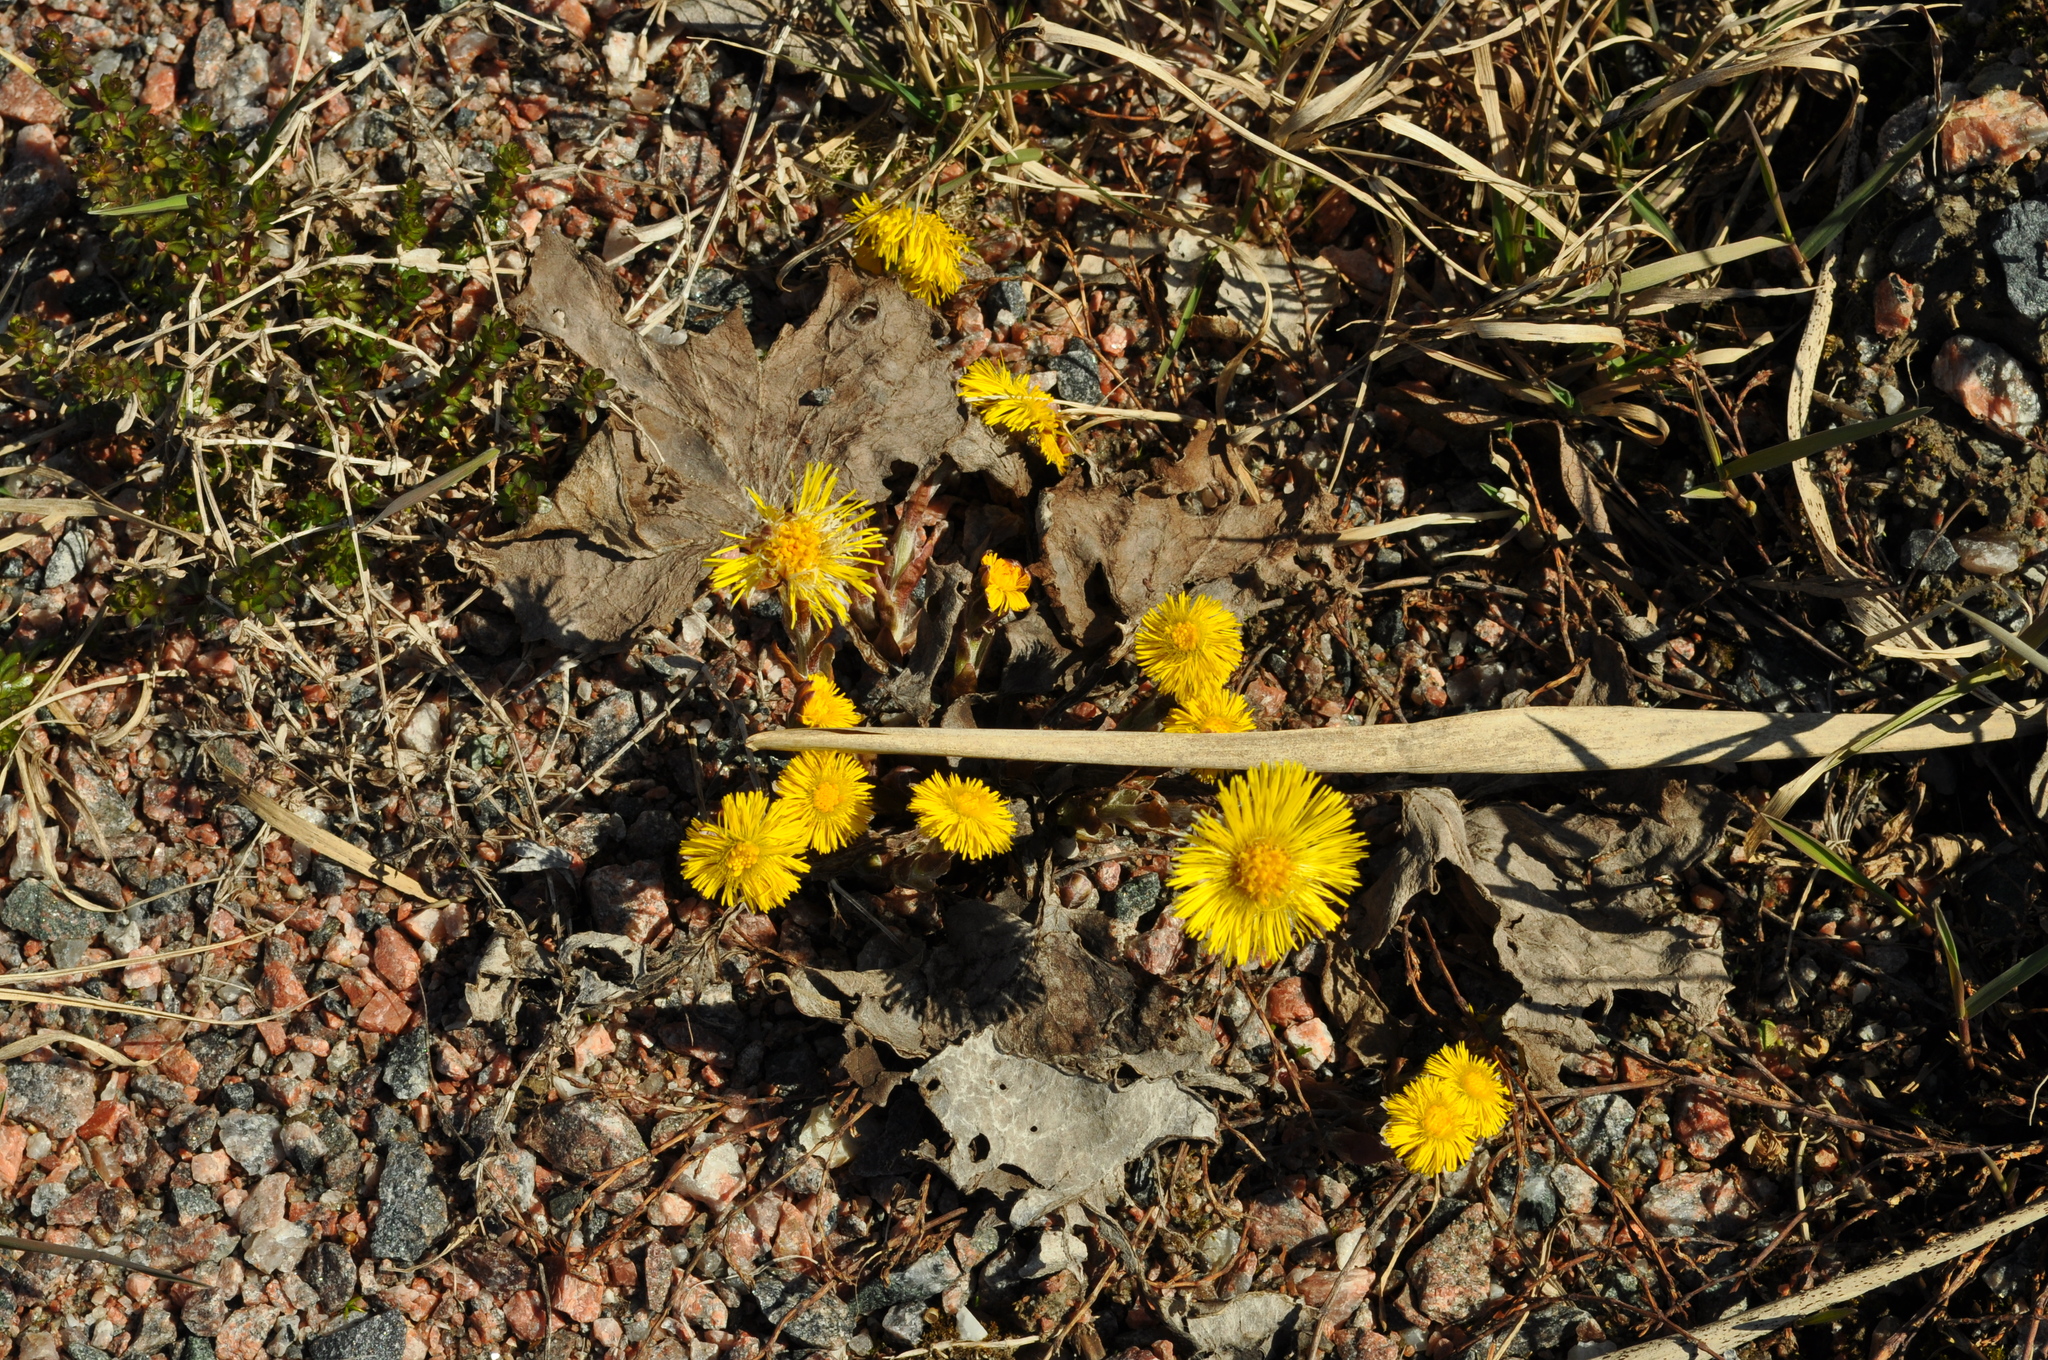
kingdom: Plantae
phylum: Tracheophyta
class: Magnoliopsida
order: Asterales
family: Asteraceae
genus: Tussilago
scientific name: Tussilago farfara
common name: Coltsfoot
